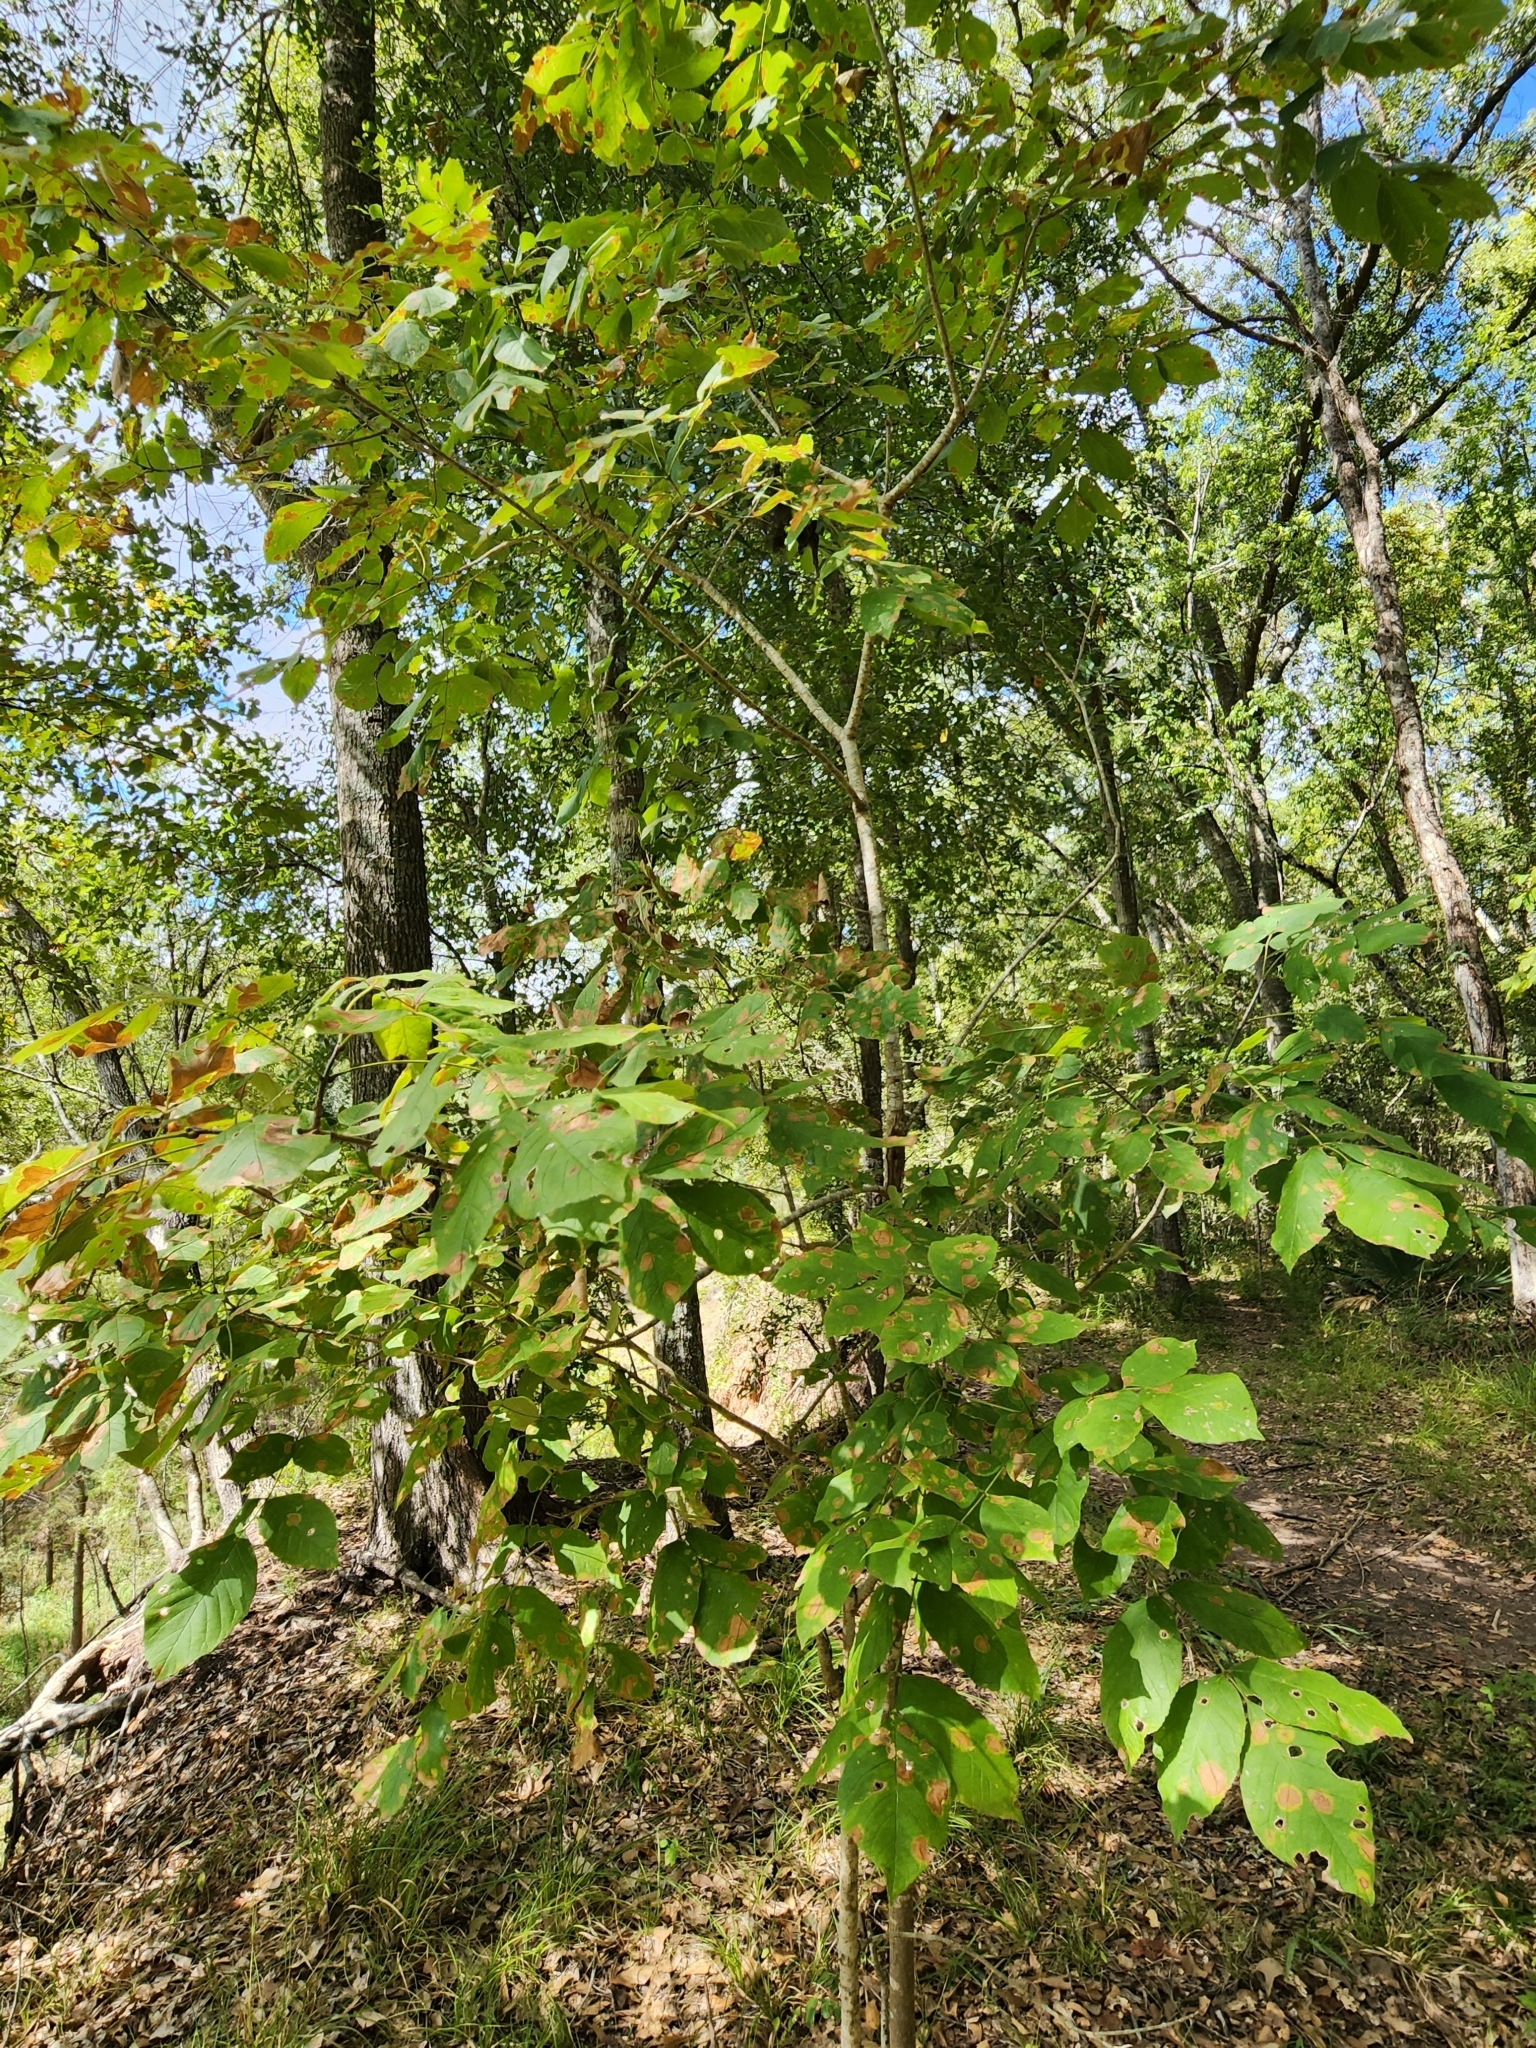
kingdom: Plantae
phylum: Tracheophyta
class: Magnoliopsida
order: Lamiales
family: Oleaceae
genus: Fraxinus
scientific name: Fraxinus pennsylvanica
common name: Green ash
